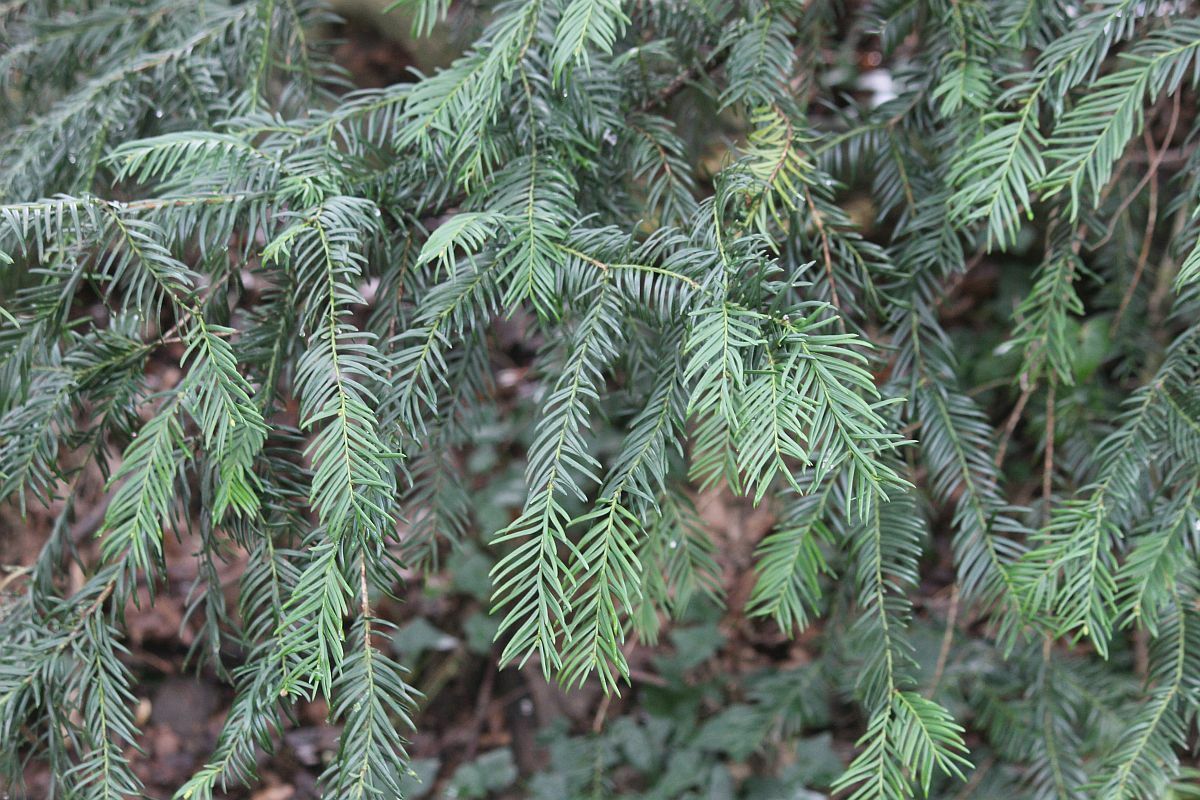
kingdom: Plantae
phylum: Tracheophyta
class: Pinopsida
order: Pinales
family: Taxaceae
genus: Taxus
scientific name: Taxus baccata
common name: Yew
